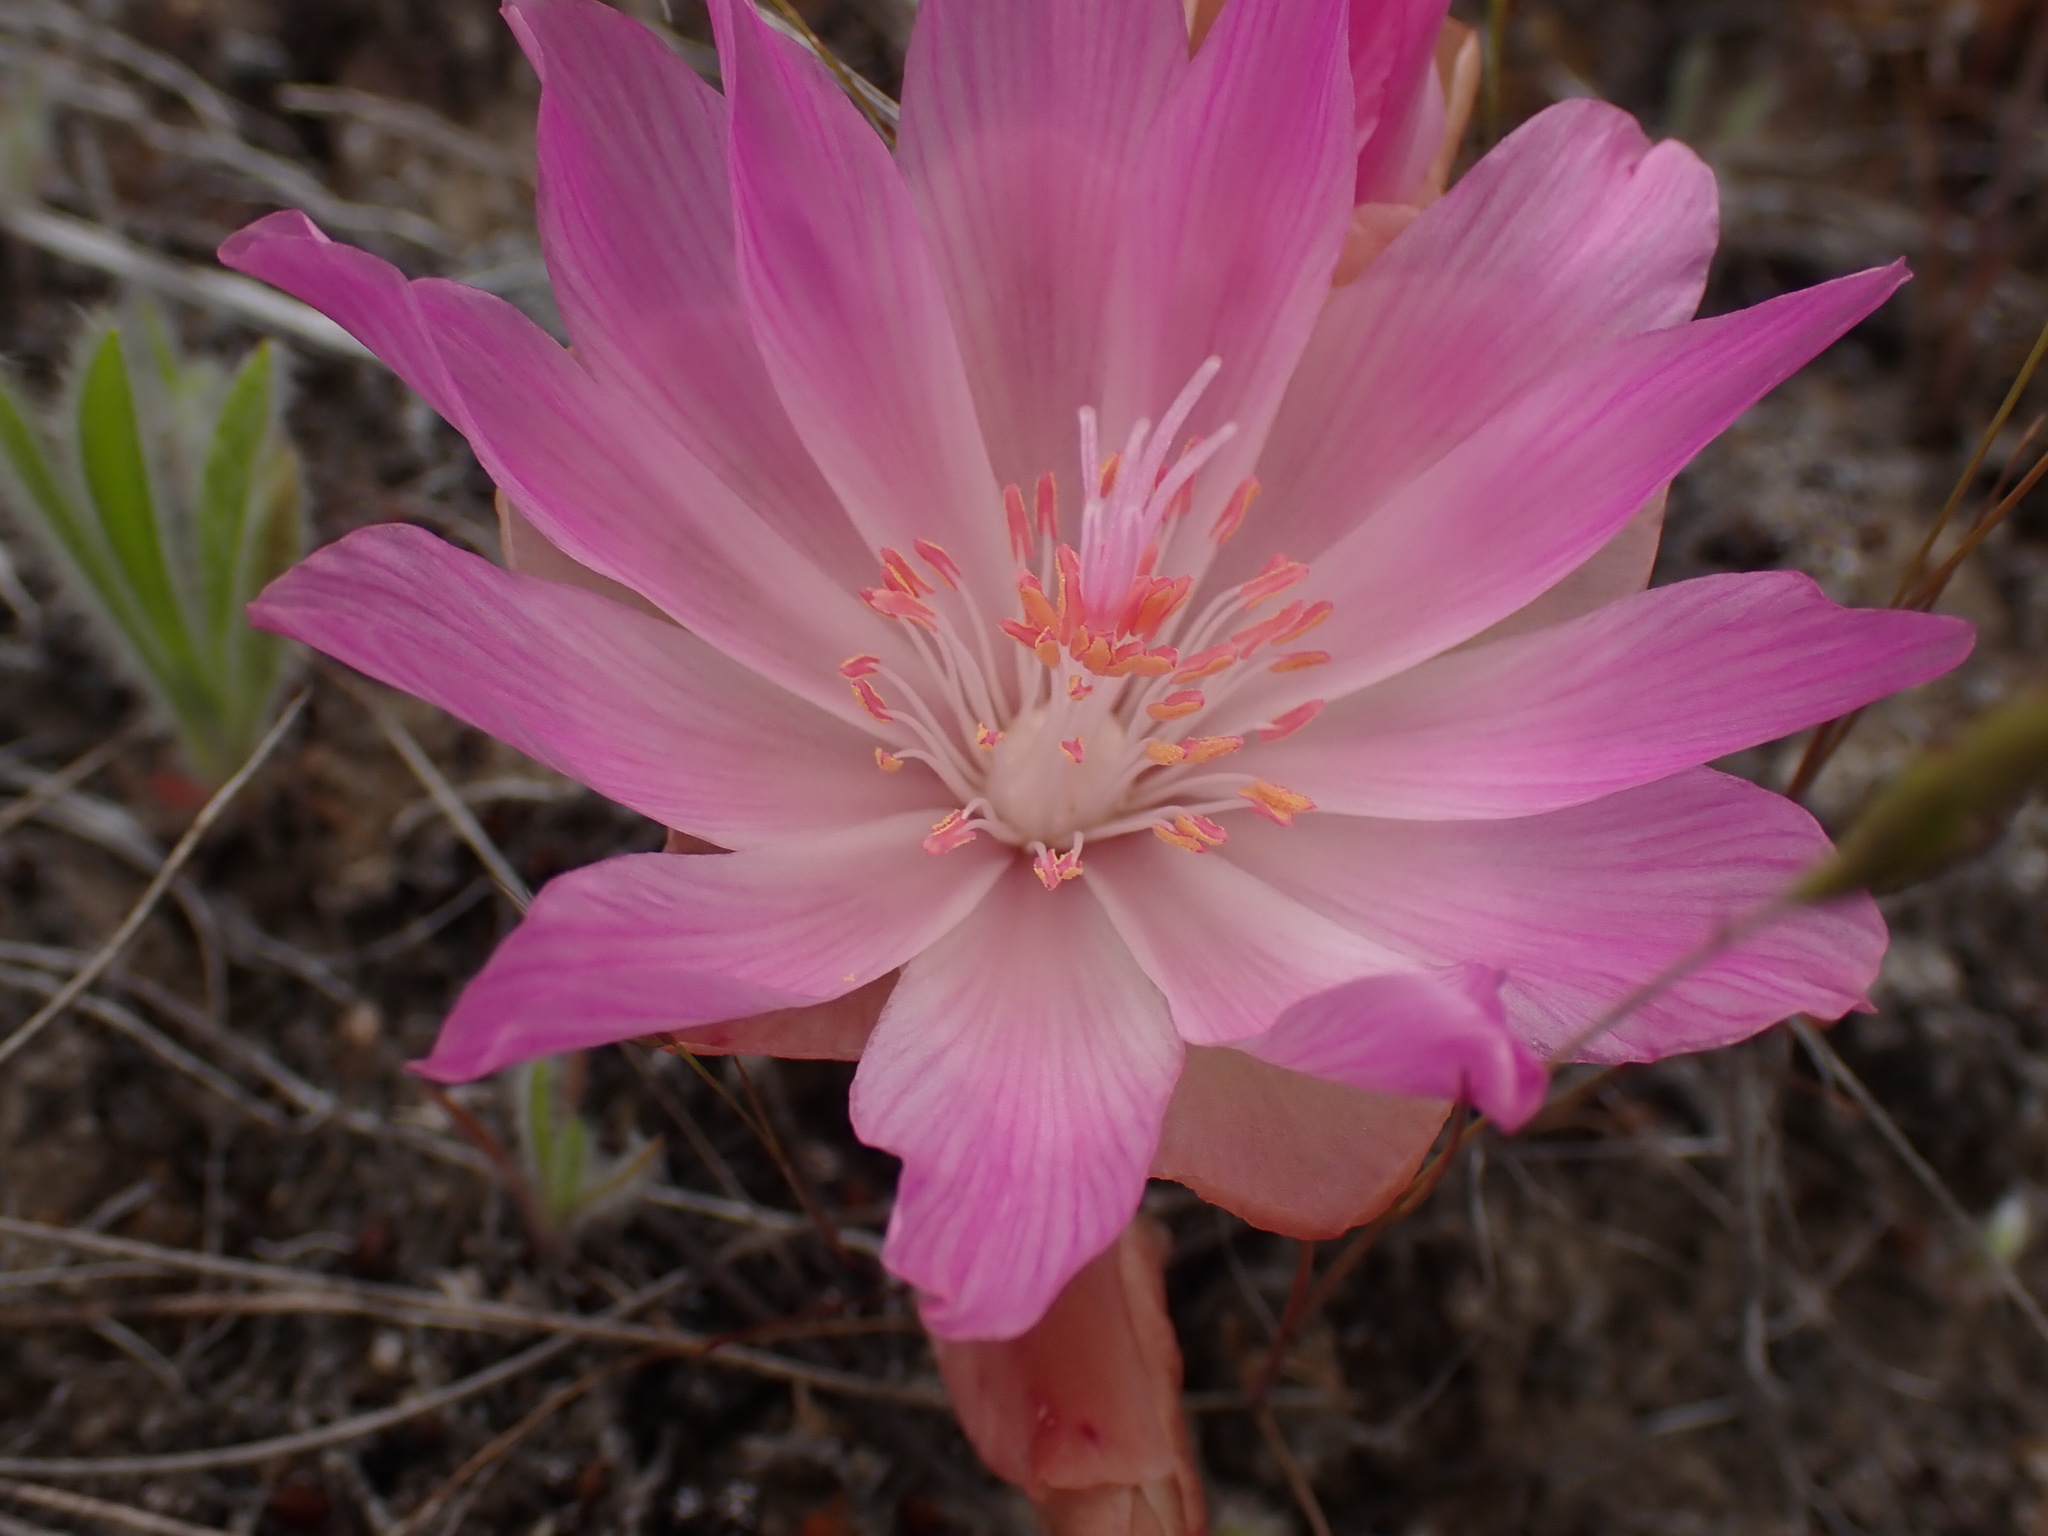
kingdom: Plantae
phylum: Tracheophyta
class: Magnoliopsida
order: Caryophyllales
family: Montiaceae
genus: Lewisia
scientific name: Lewisia rediviva
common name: Bitter-root
